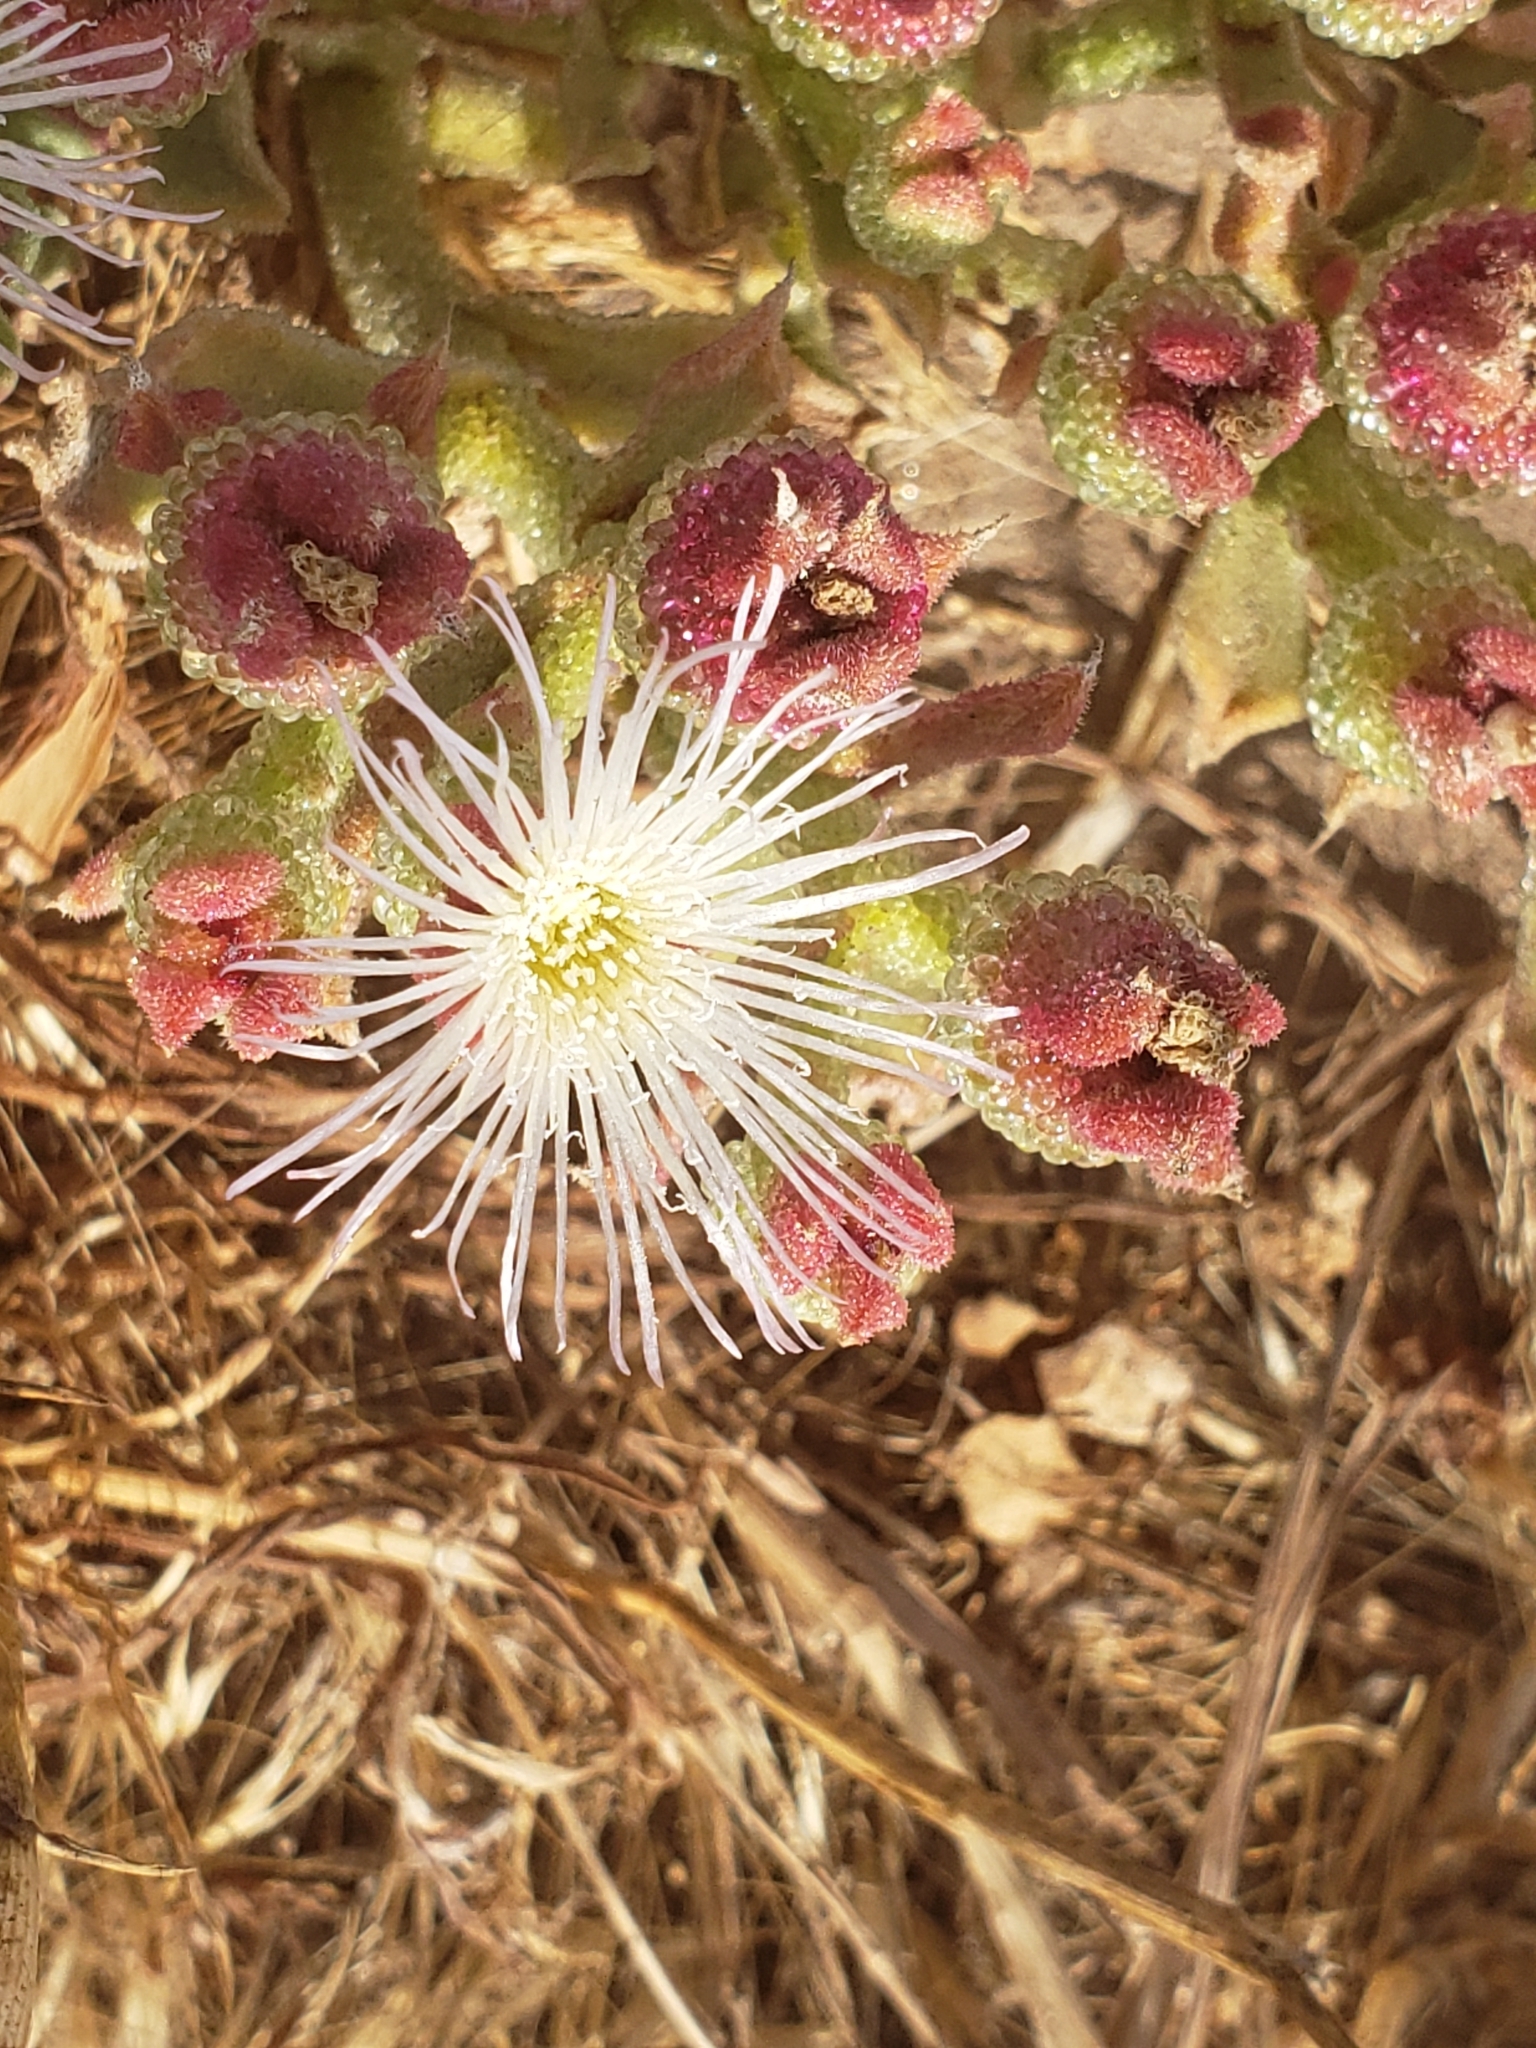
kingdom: Plantae
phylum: Tracheophyta
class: Magnoliopsida
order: Caryophyllales
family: Aizoaceae
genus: Mesembryanthemum
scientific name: Mesembryanthemum crystallinum
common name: Common iceplant
